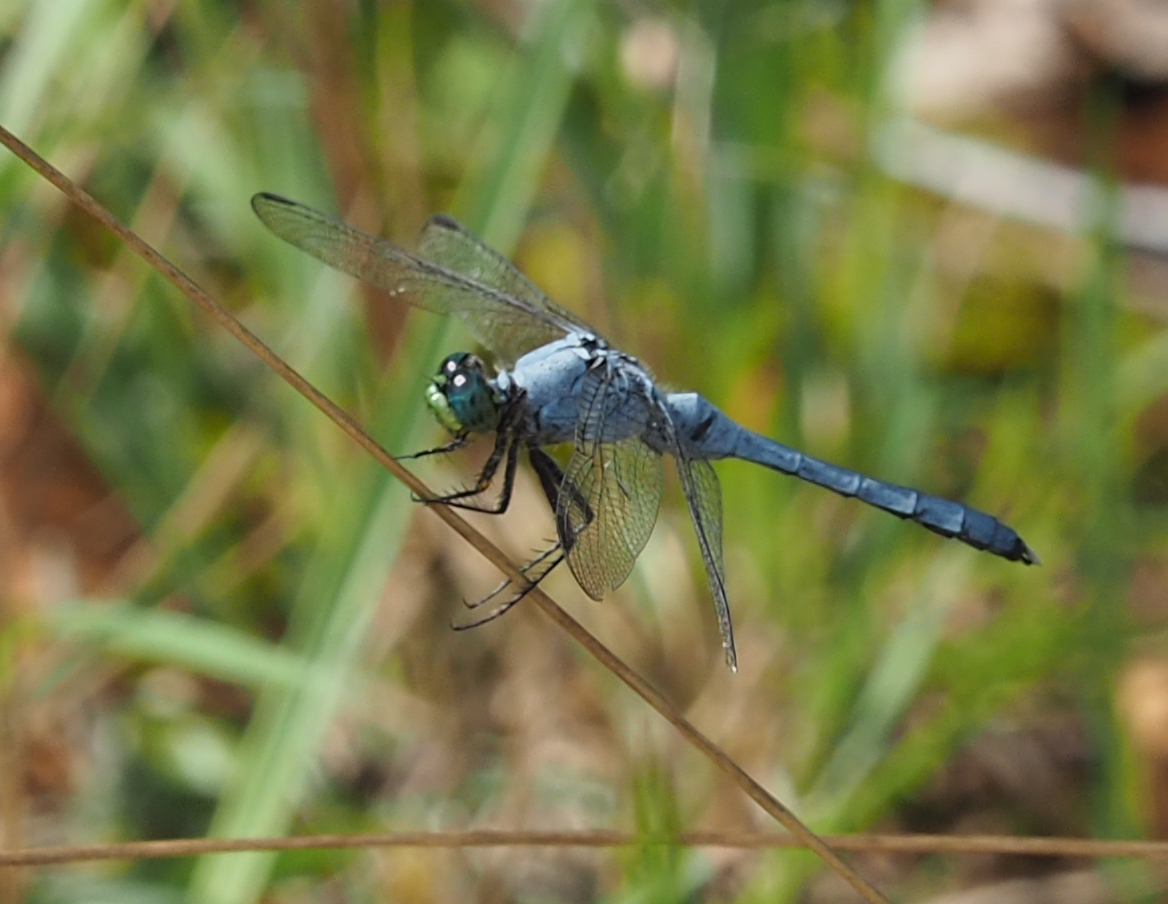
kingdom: Animalia
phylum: Arthropoda
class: Insecta
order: Odonata
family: Libellulidae
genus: Erythemis
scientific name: Erythemis simplicicollis
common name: Eastern pondhawk
